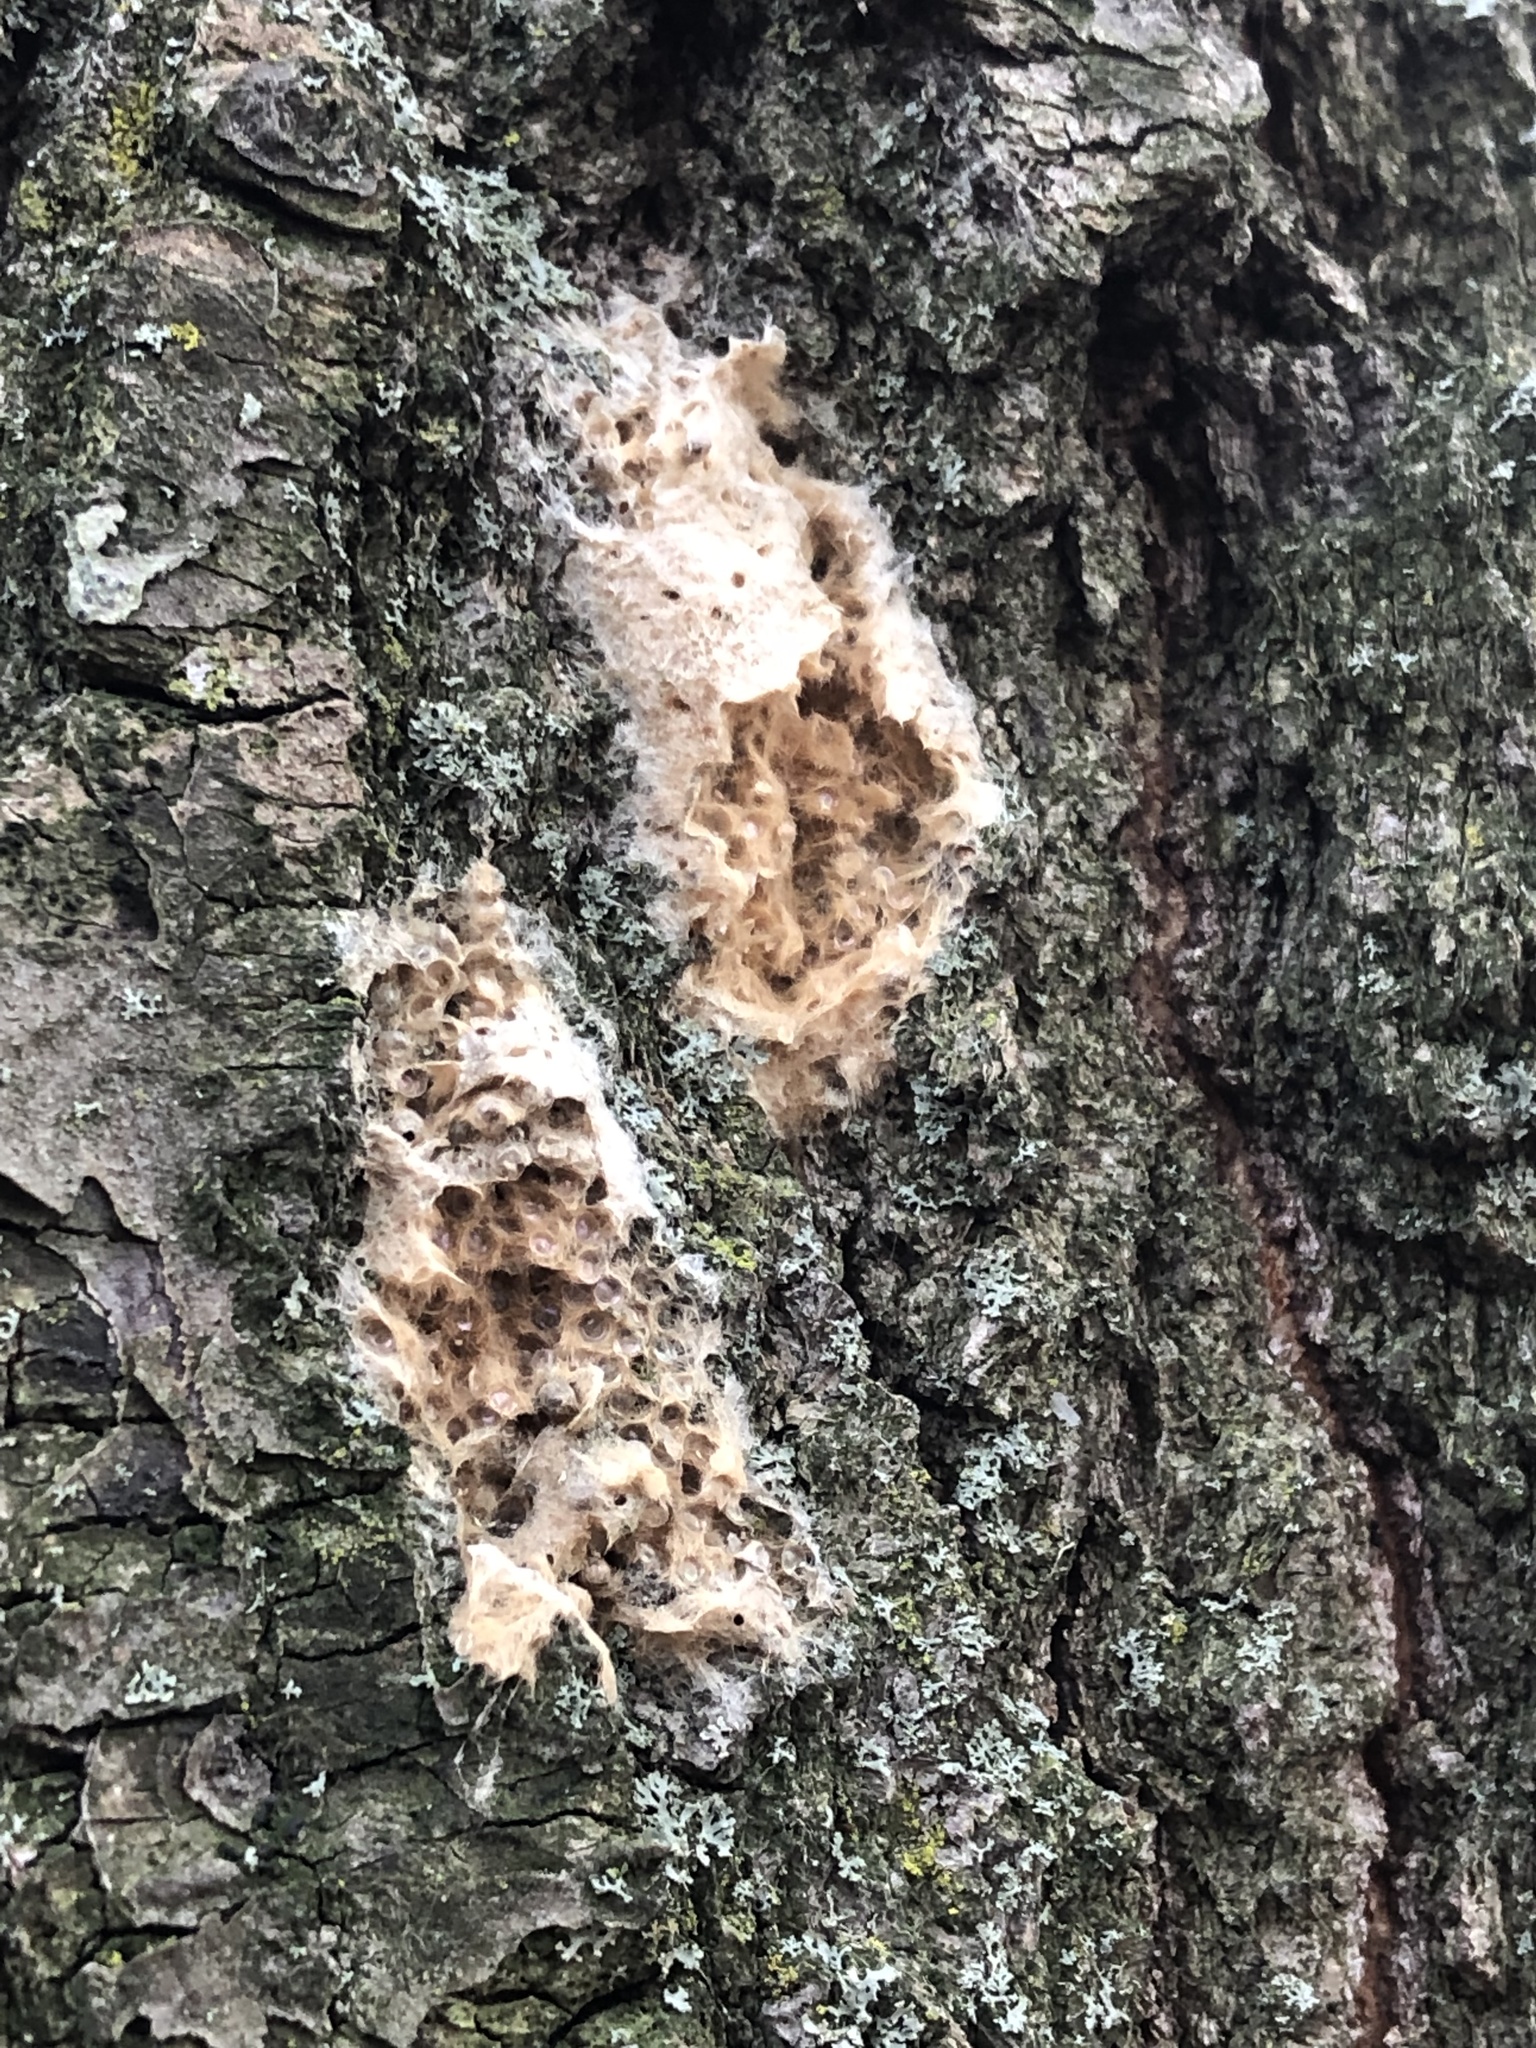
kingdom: Animalia
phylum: Arthropoda
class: Insecta
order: Lepidoptera
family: Erebidae
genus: Lymantria
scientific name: Lymantria dispar
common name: Gypsy moth
